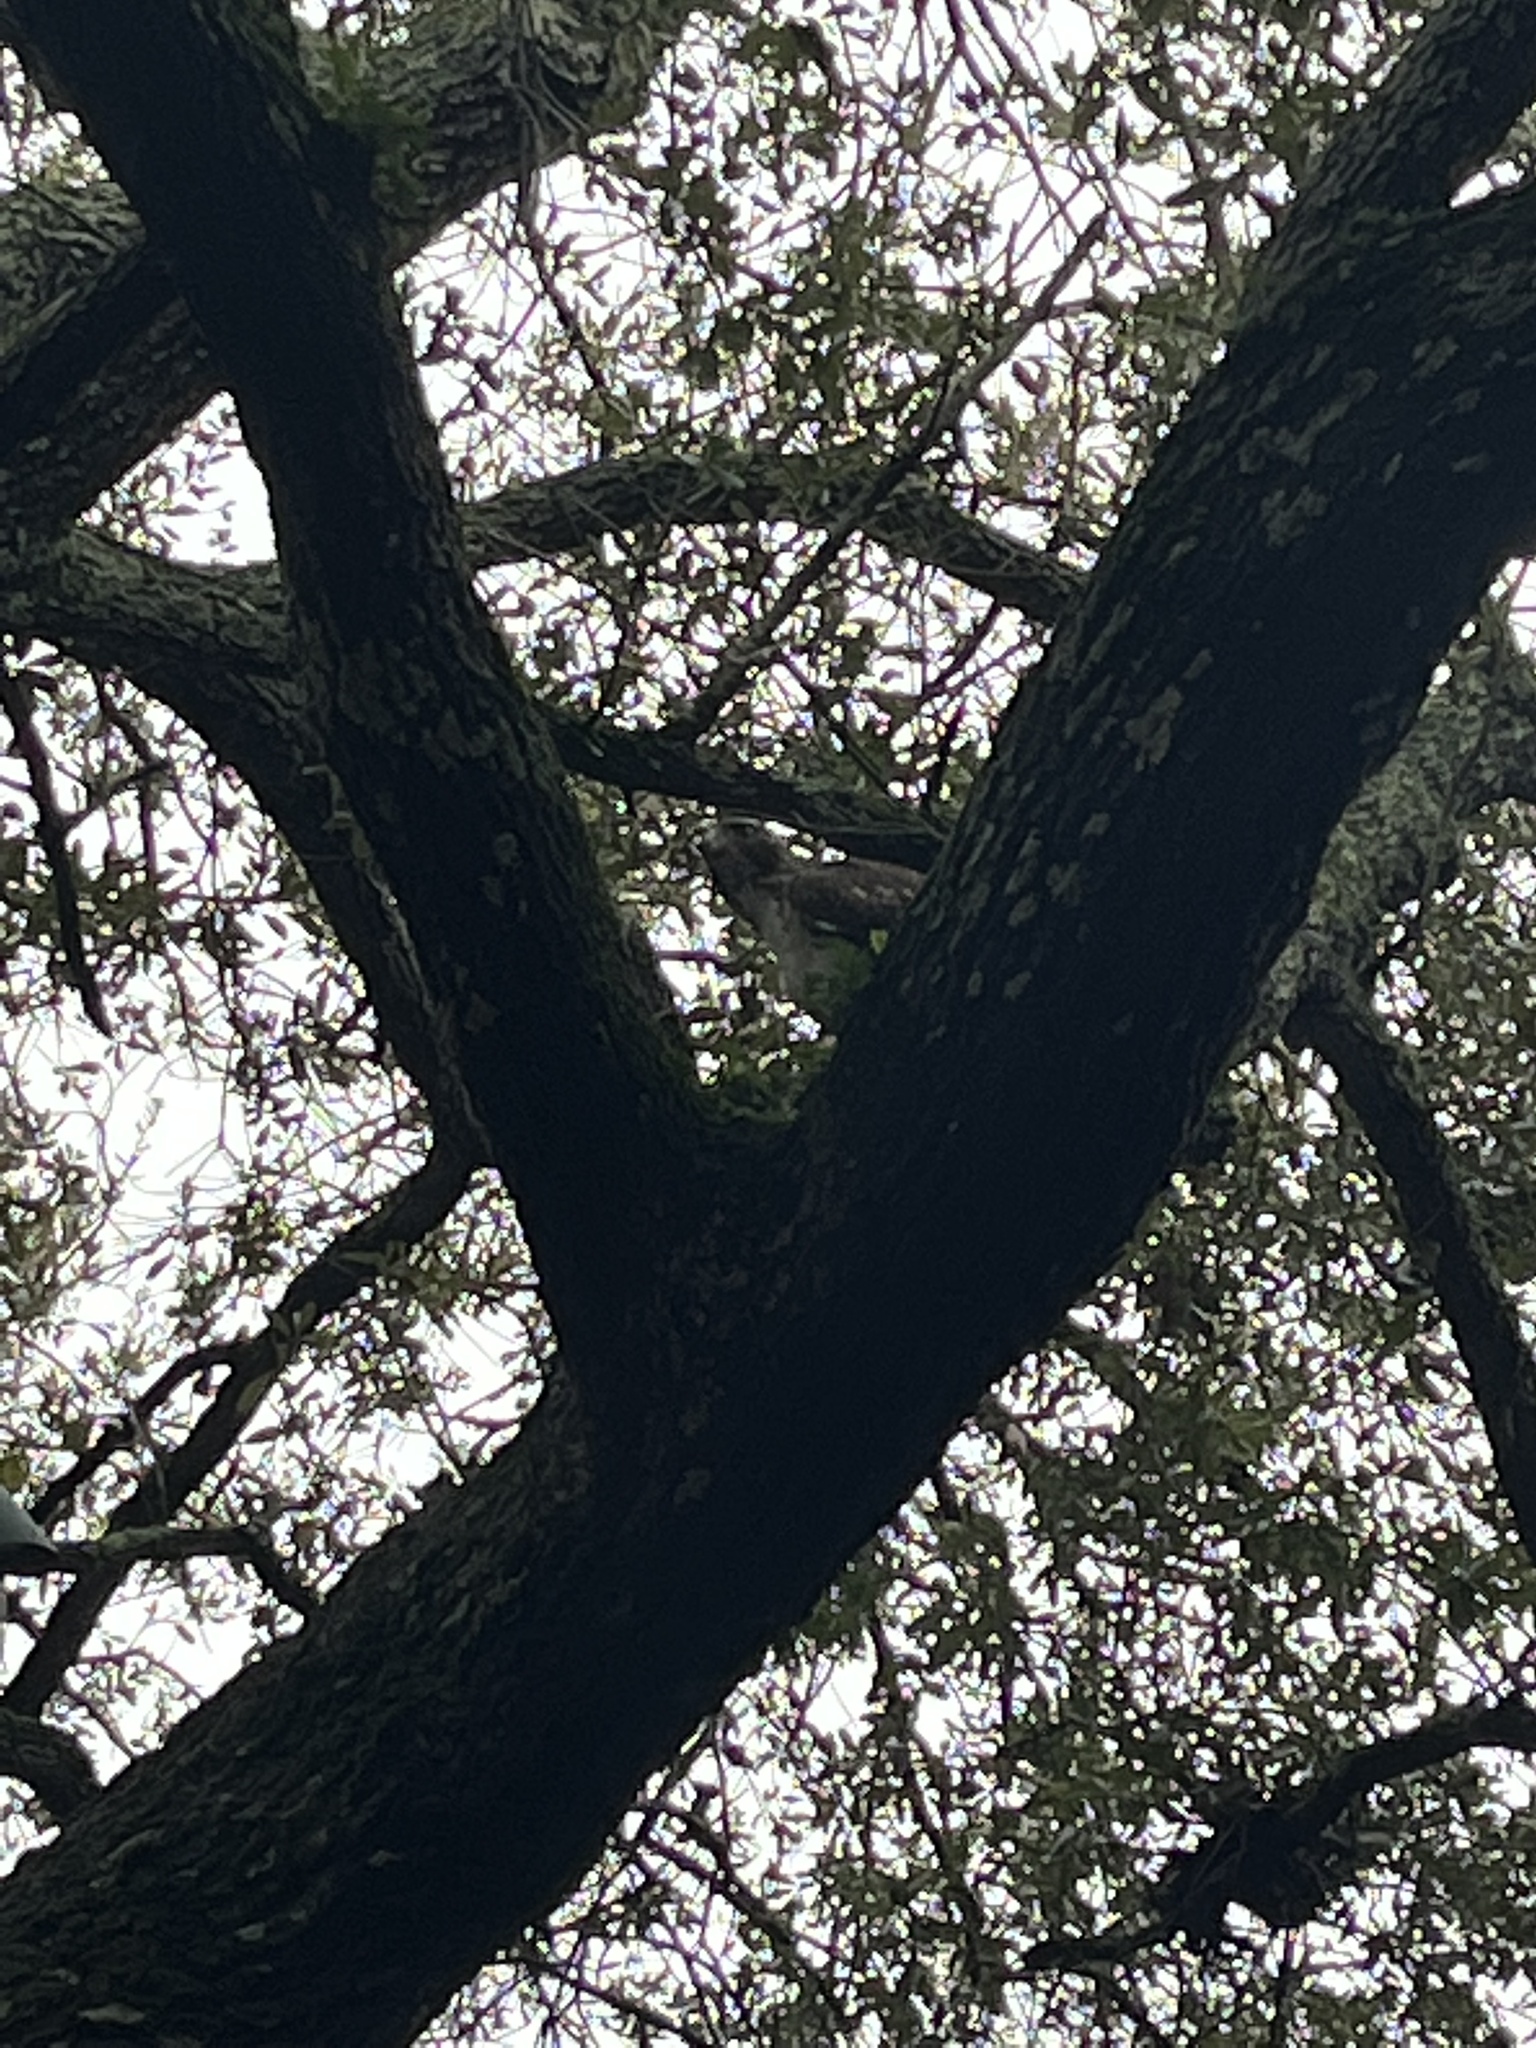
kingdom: Animalia
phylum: Chordata
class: Aves
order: Accipitriformes
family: Accipitridae
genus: Buteo
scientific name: Buteo jamaicensis
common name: Red-tailed hawk
